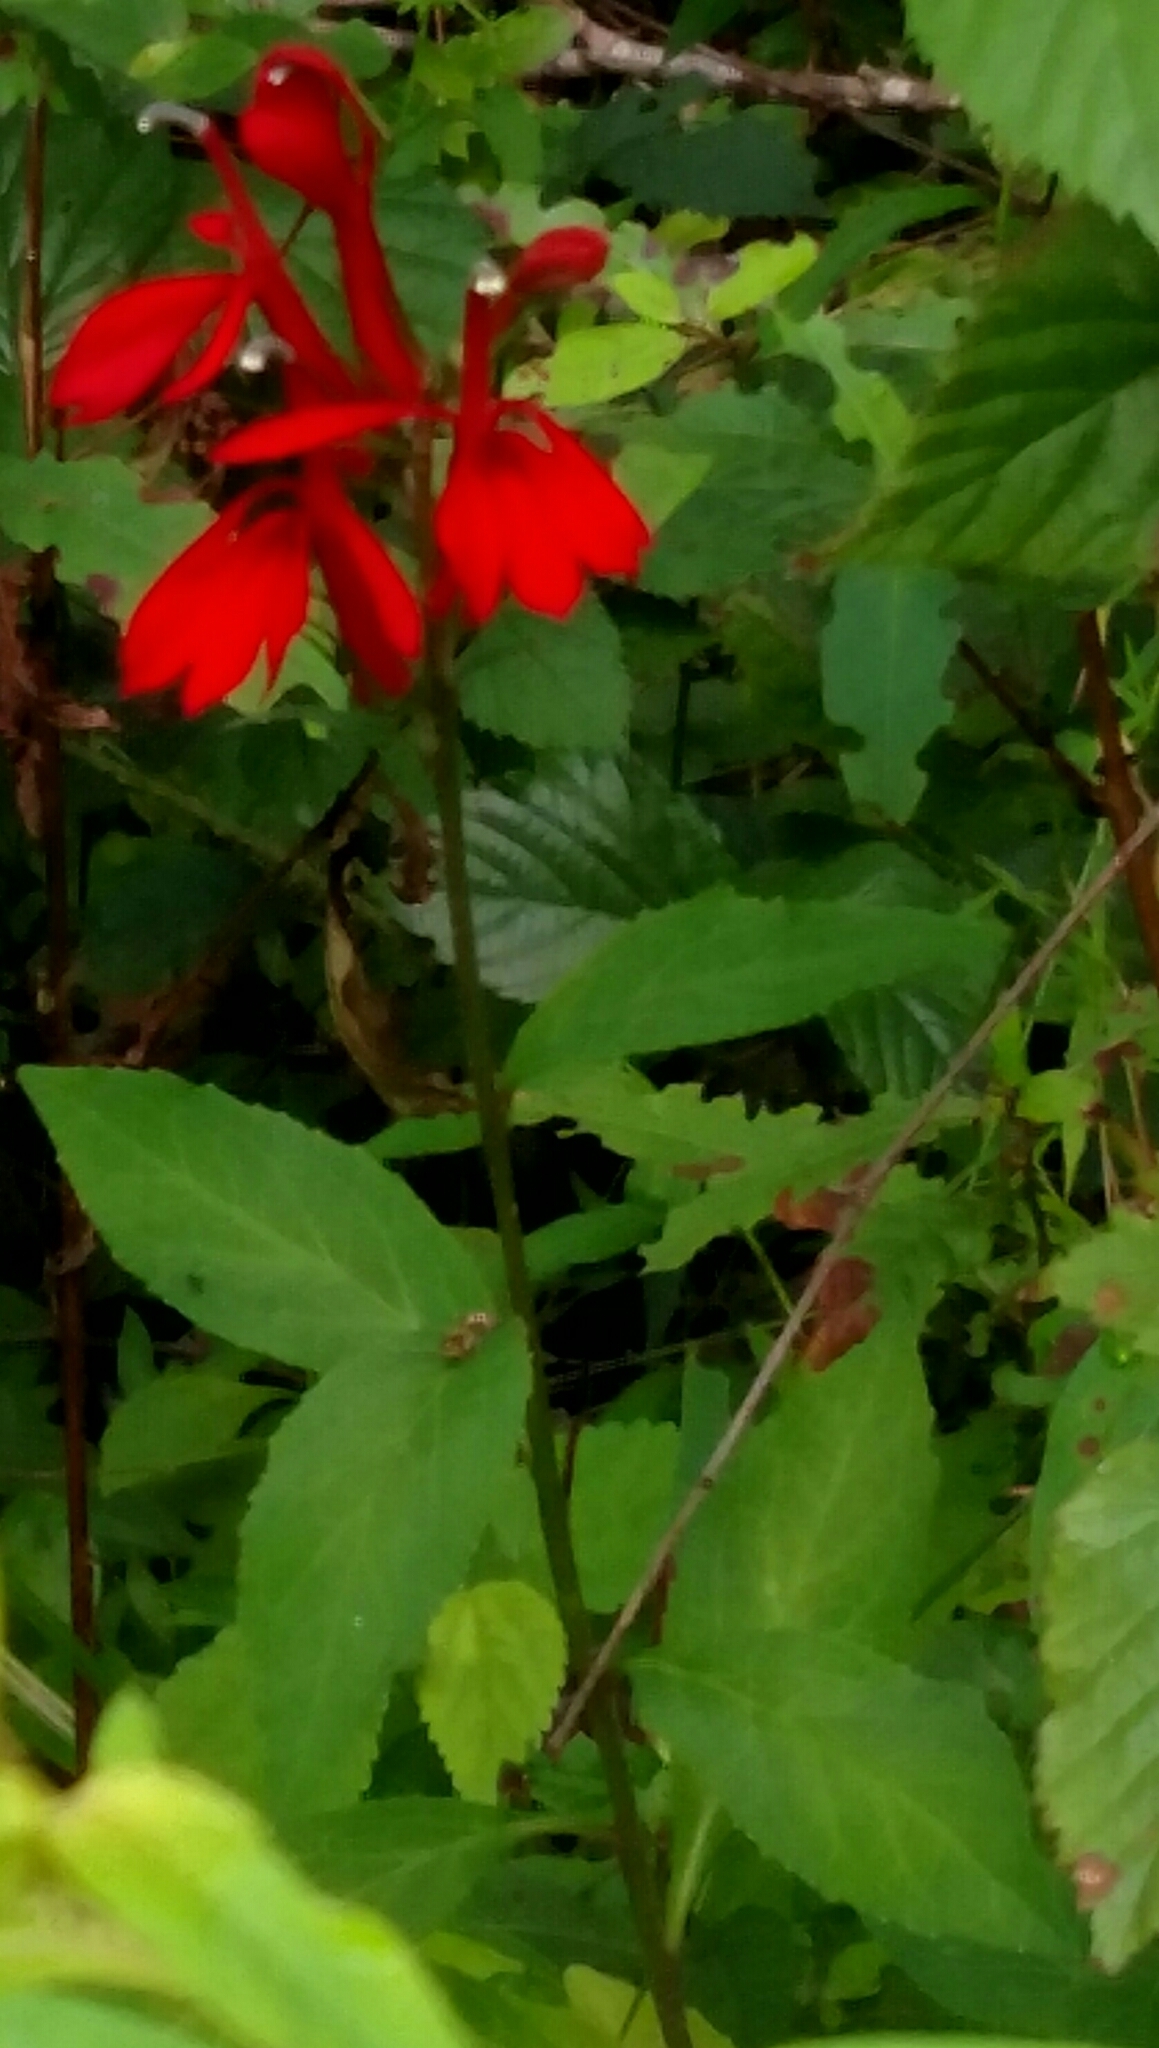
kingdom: Plantae
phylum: Tracheophyta
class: Magnoliopsida
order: Asterales
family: Campanulaceae
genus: Lobelia
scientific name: Lobelia cardinalis
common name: Cardinal flower
